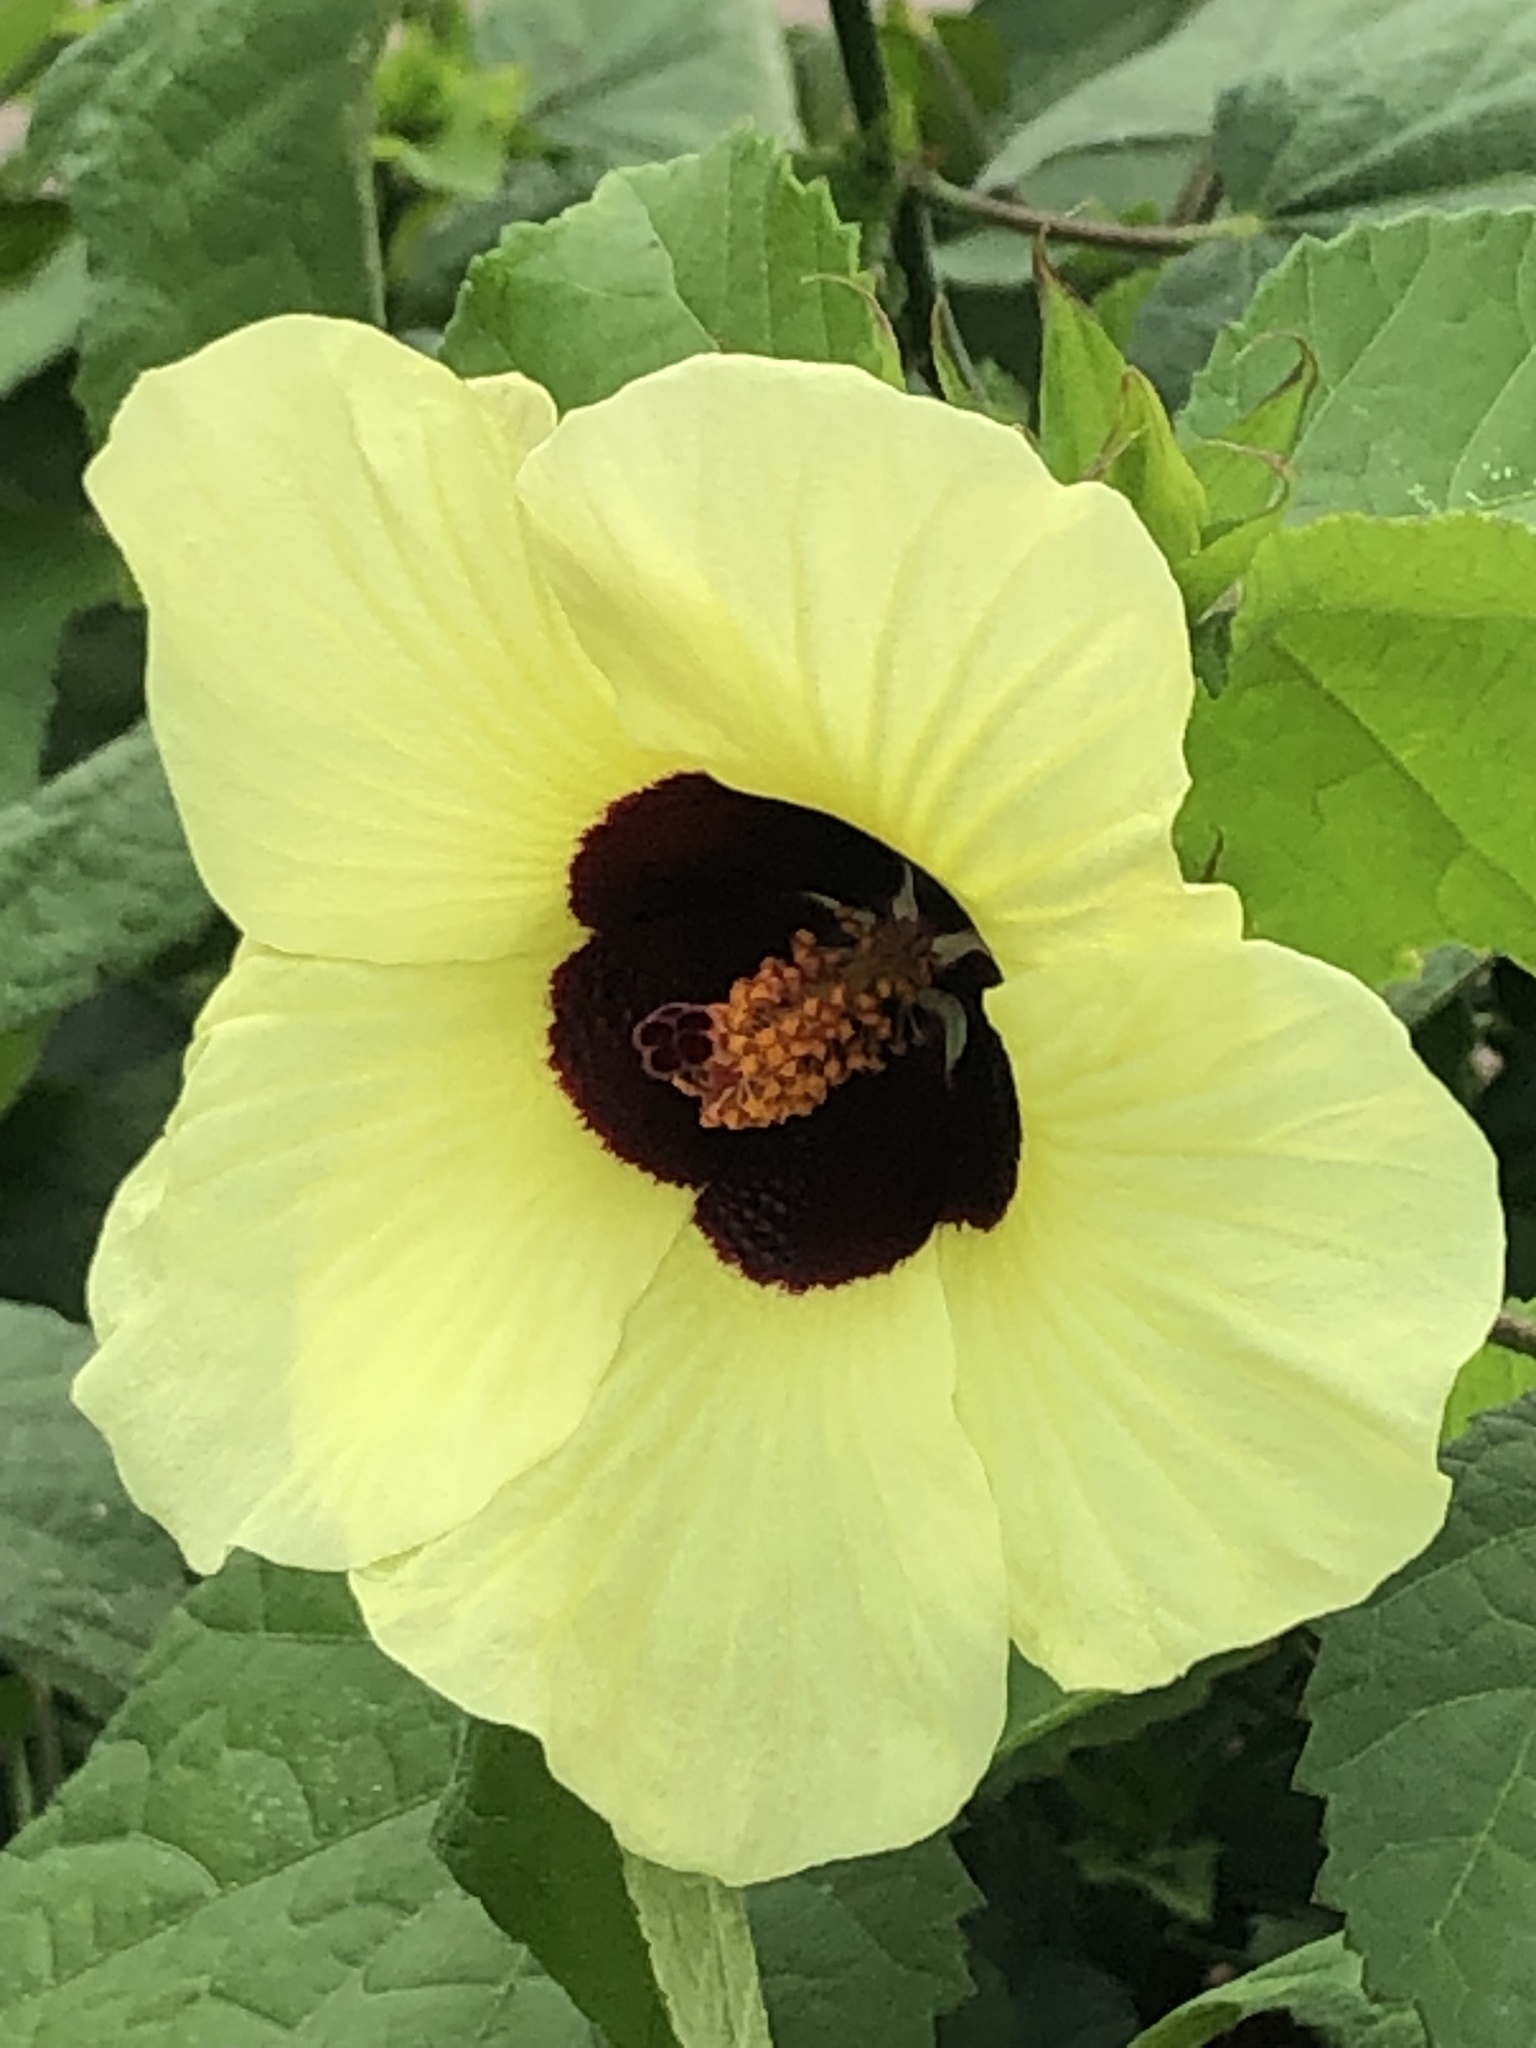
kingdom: Plantae
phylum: Tracheophyta
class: Magnoliopsida
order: Malvales
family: Malvaceae
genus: Talipariti
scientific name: Talipariti tiliaceum
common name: Sea hibiscus
